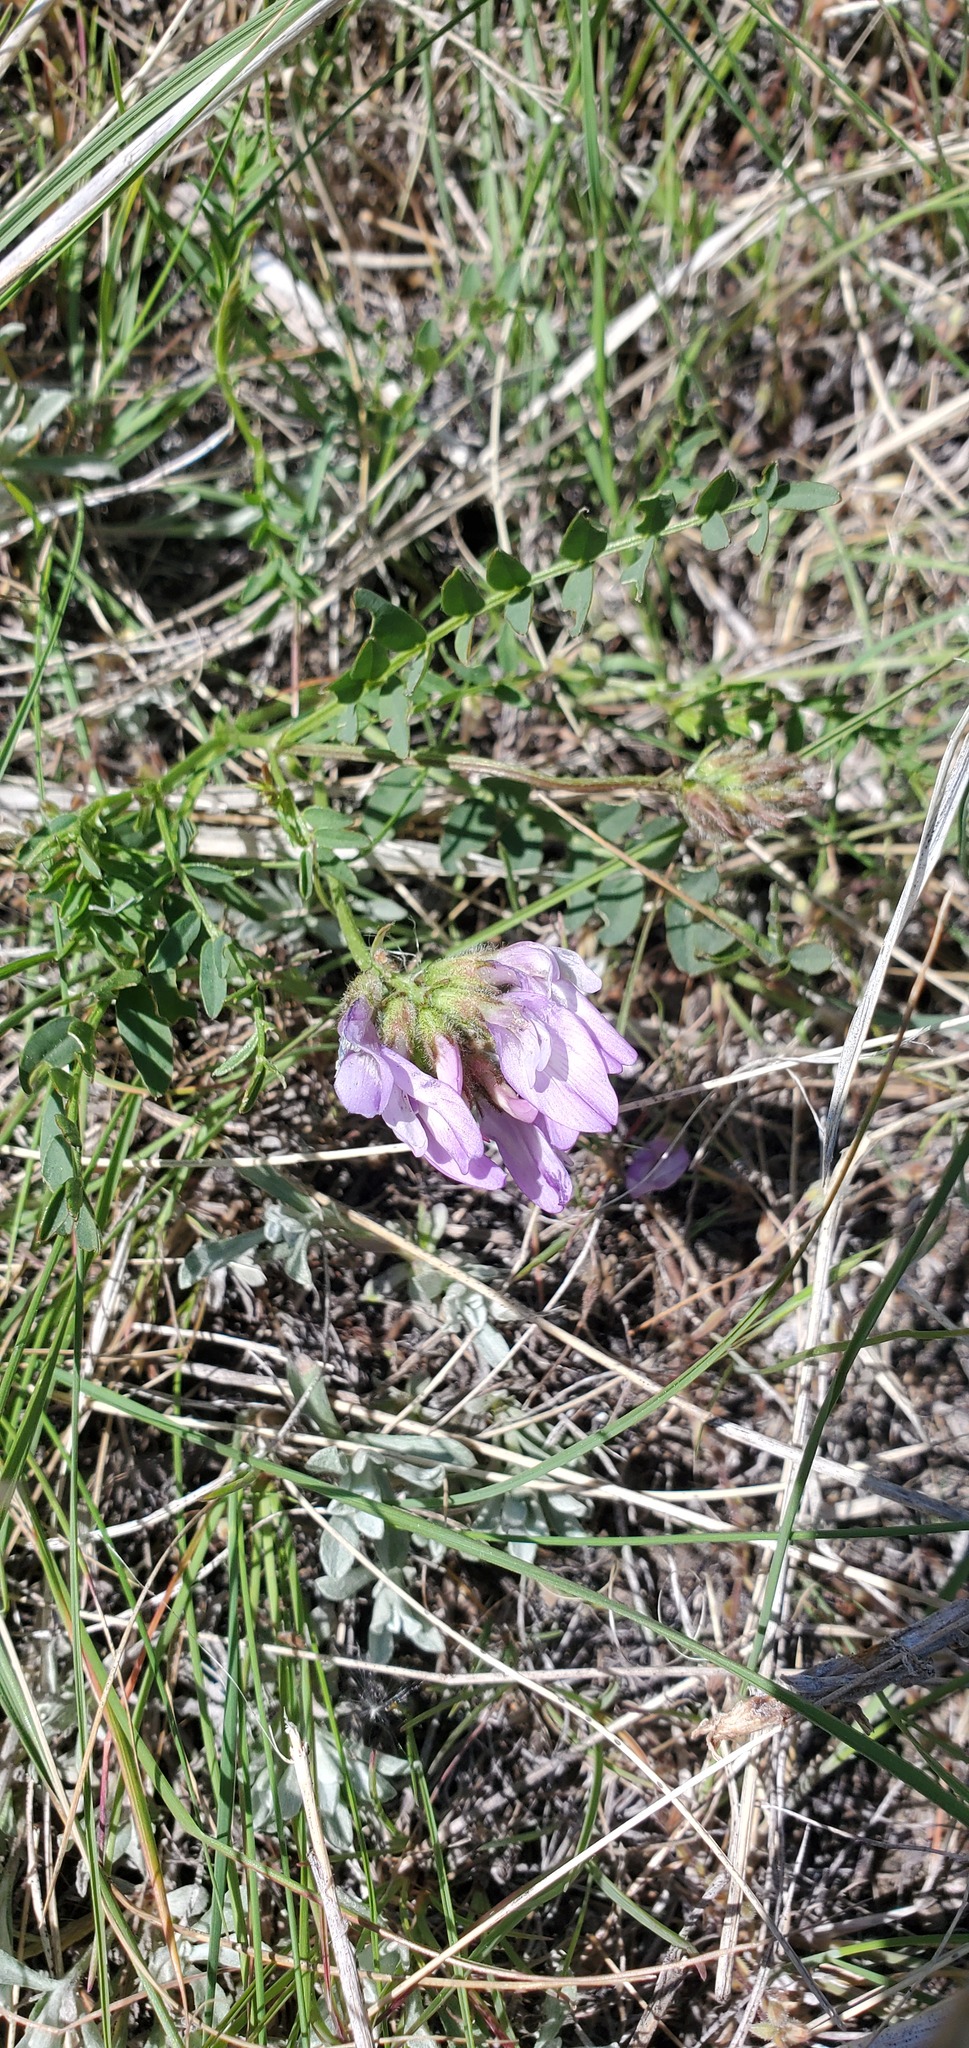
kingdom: Plantae
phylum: Tracheophyta
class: Magnoliopsida
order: Fabales
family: Fabaceae
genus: Astragalus
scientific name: Astragalus agrestis
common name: Field milk-vetch
